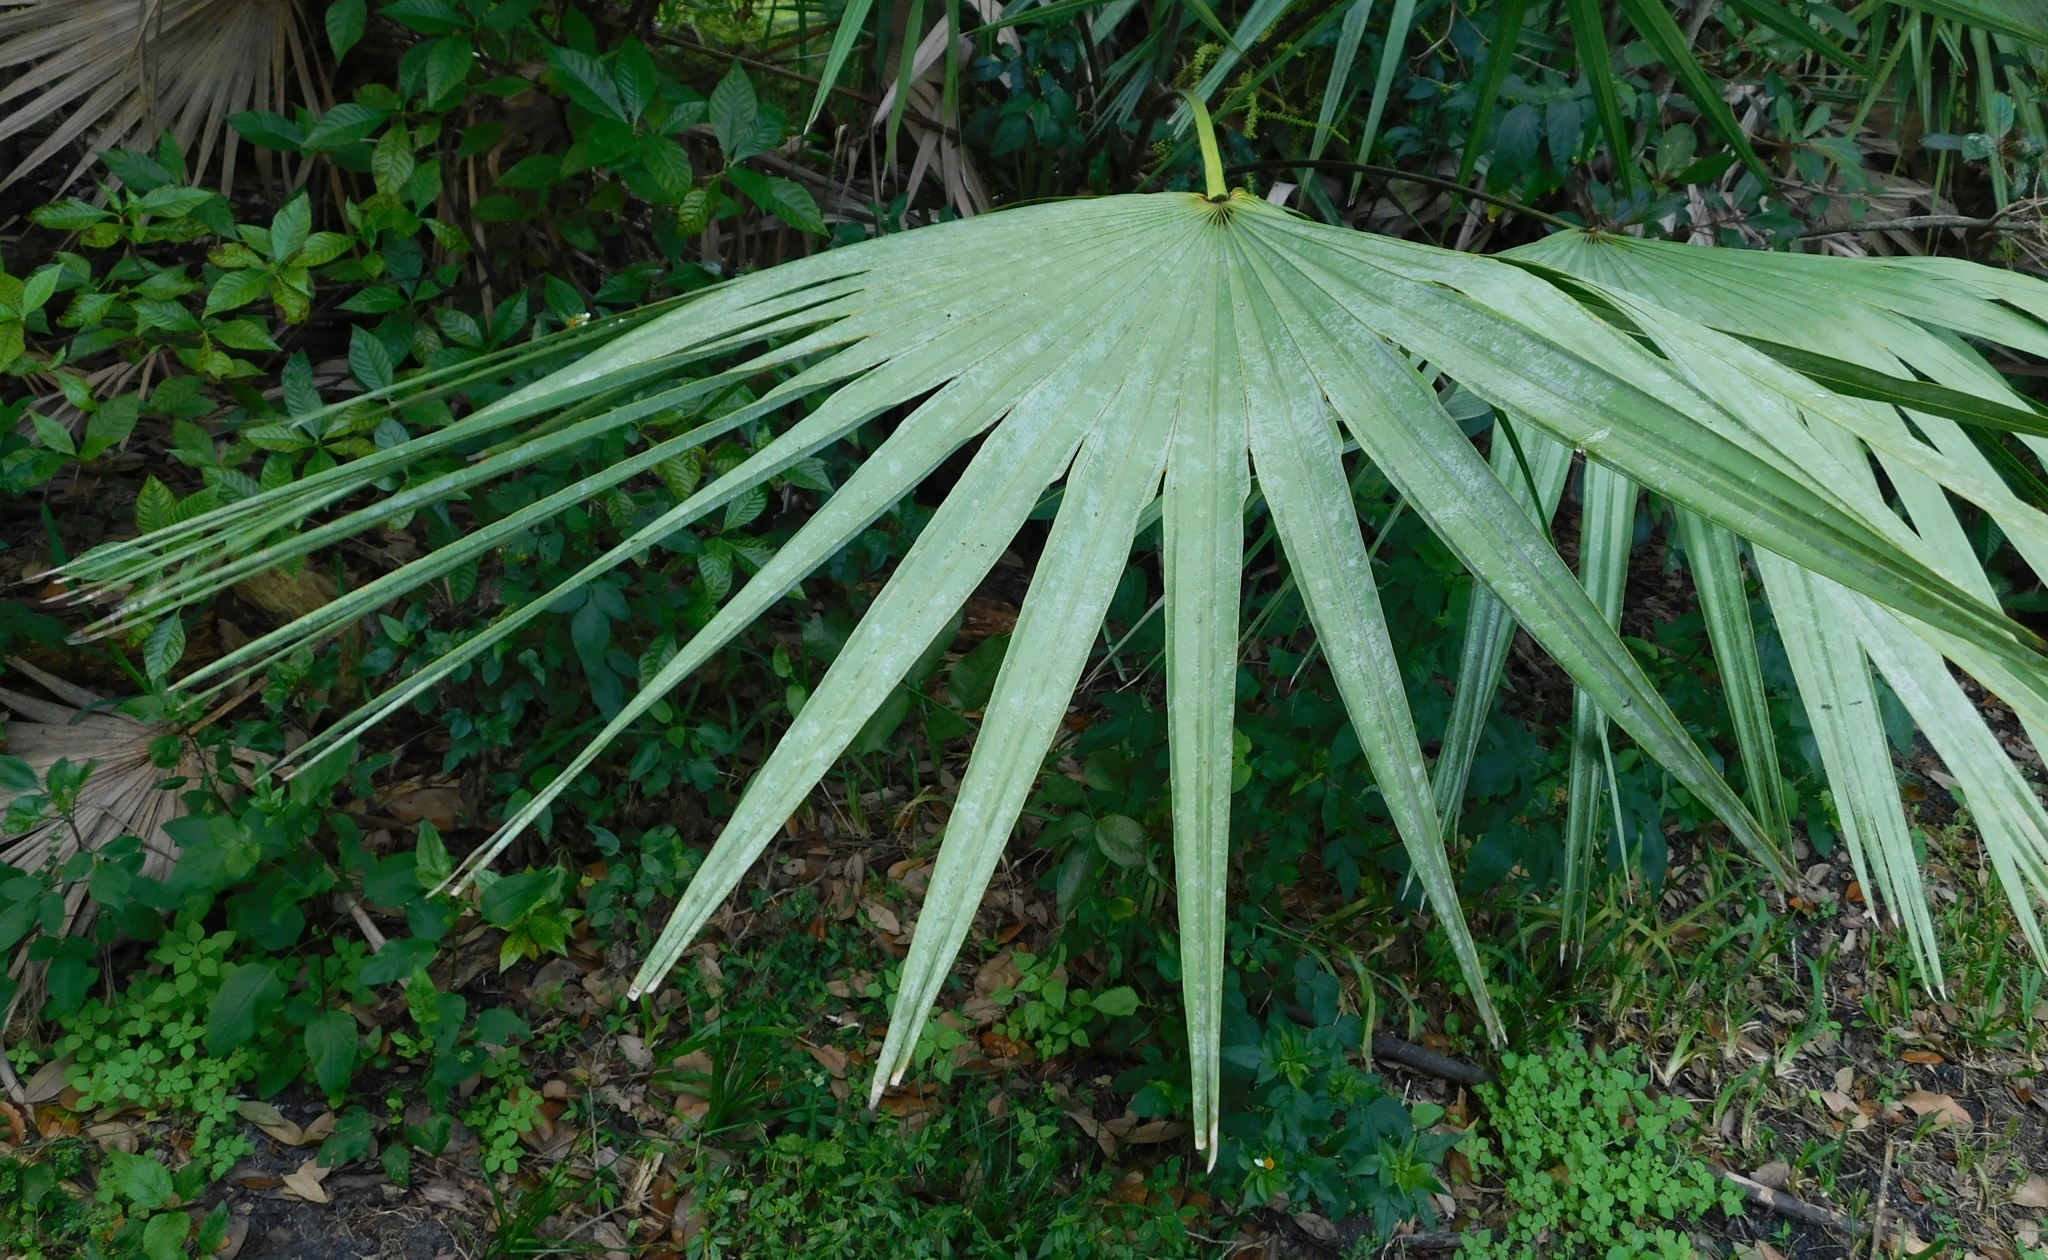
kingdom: Plantae
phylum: Tracheophyta
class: Liliopsida
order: Arecales
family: Arecaceae
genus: Serenoa
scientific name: Serenoa repens
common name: Saw-palmetto
